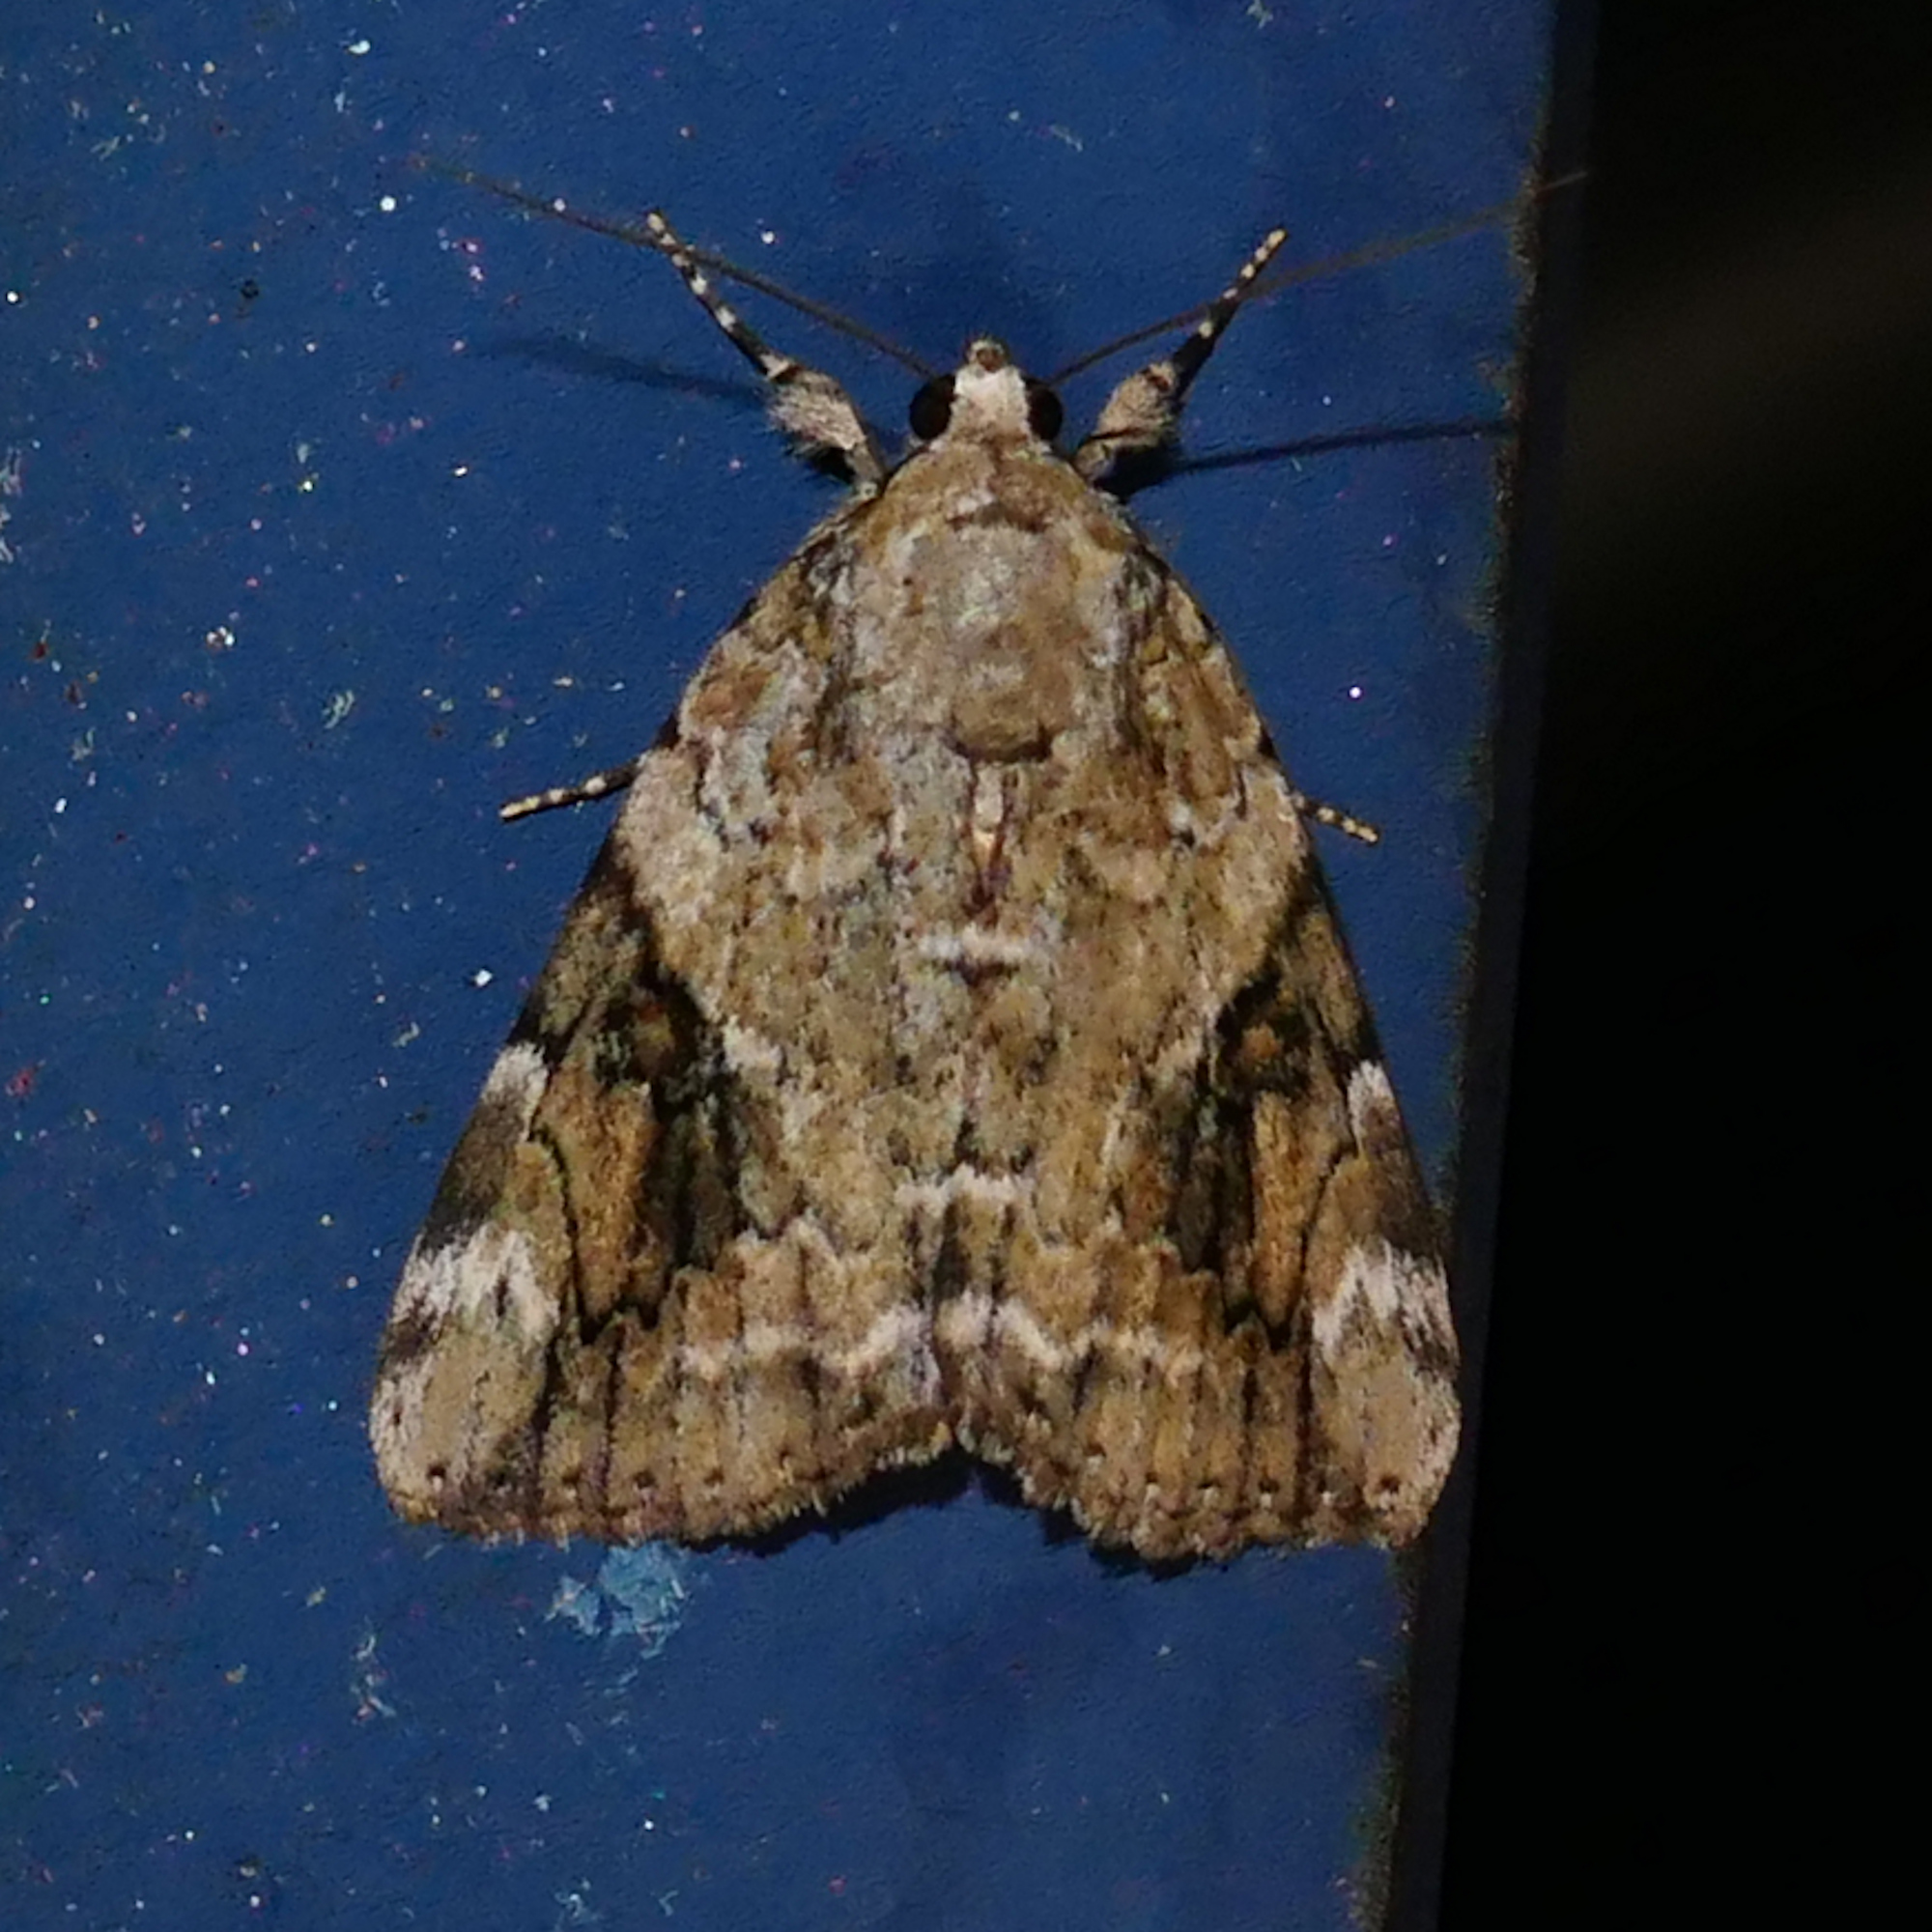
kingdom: Animalia
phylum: Arthropoda
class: Insecta
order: Lepidoptera
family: Erebidae
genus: Catocala
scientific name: Catocala micronympha
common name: Little nymph underwing
